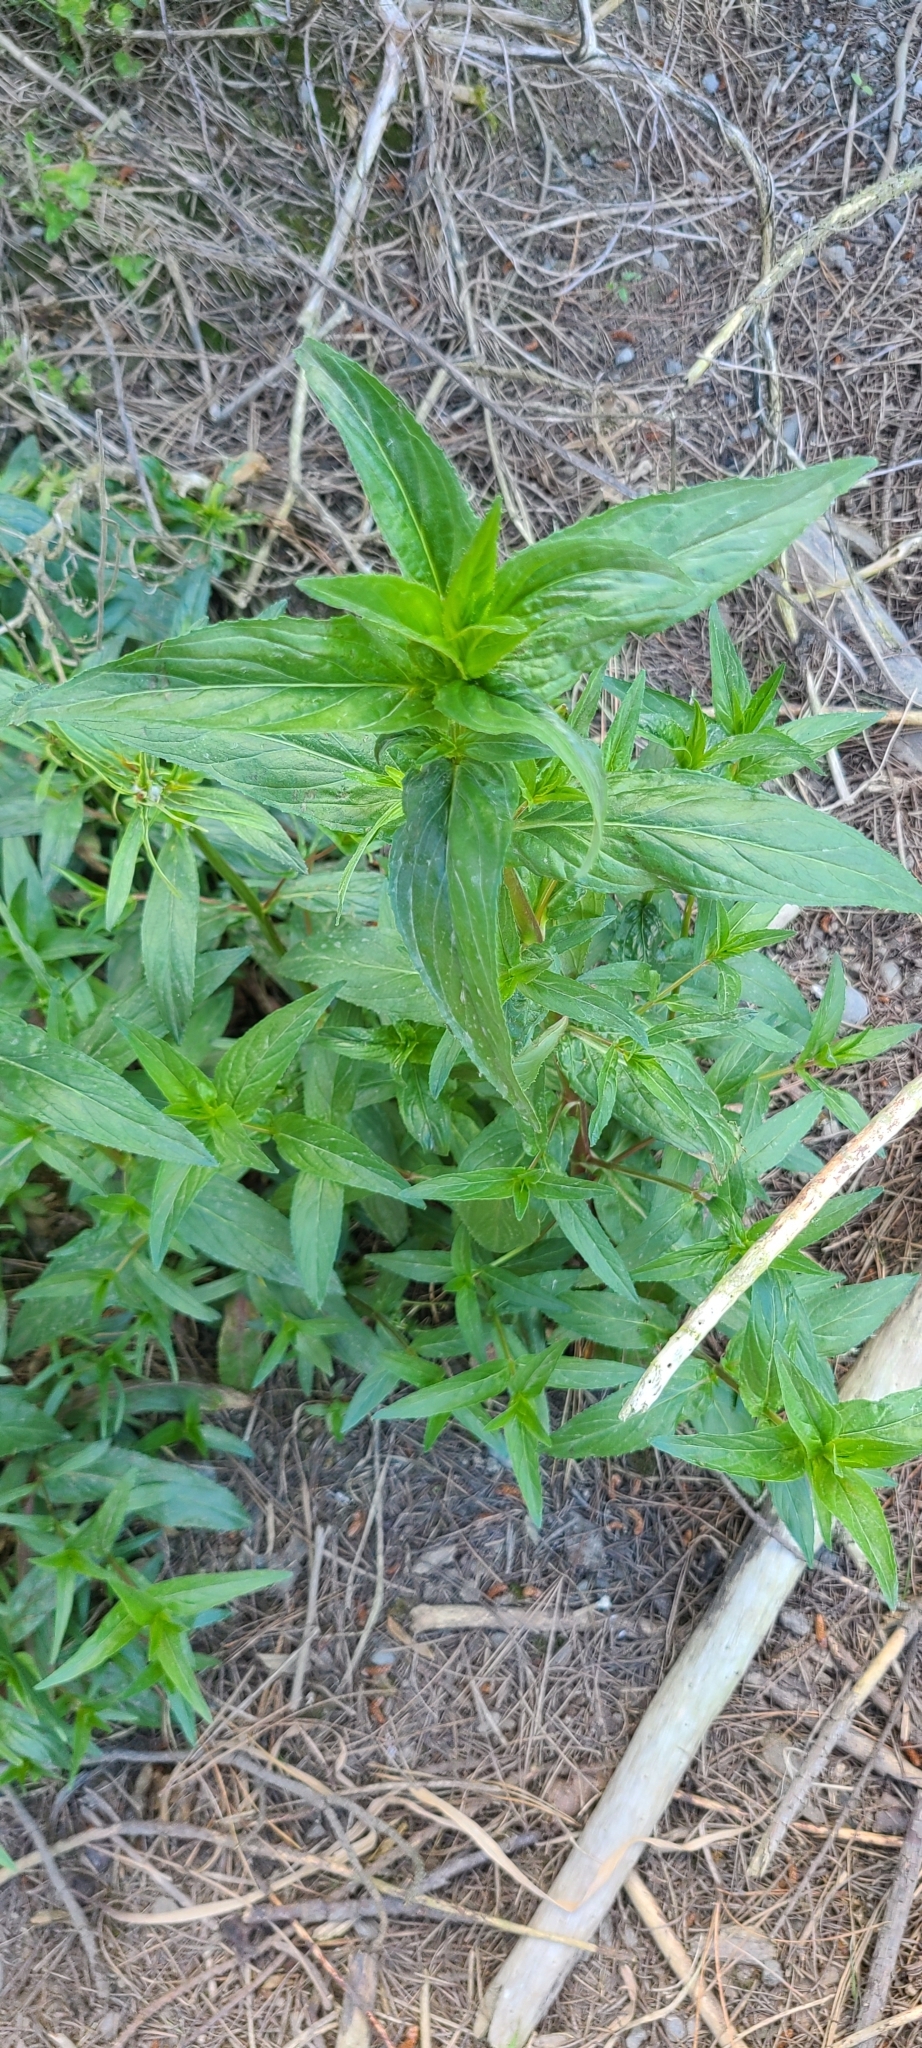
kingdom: Plantae
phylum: Tracheophyta
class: Magnoliopsida
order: Myrtales
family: Onagraceae
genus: Epilobium
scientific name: Epilobium ciliatum
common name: American willowherb
